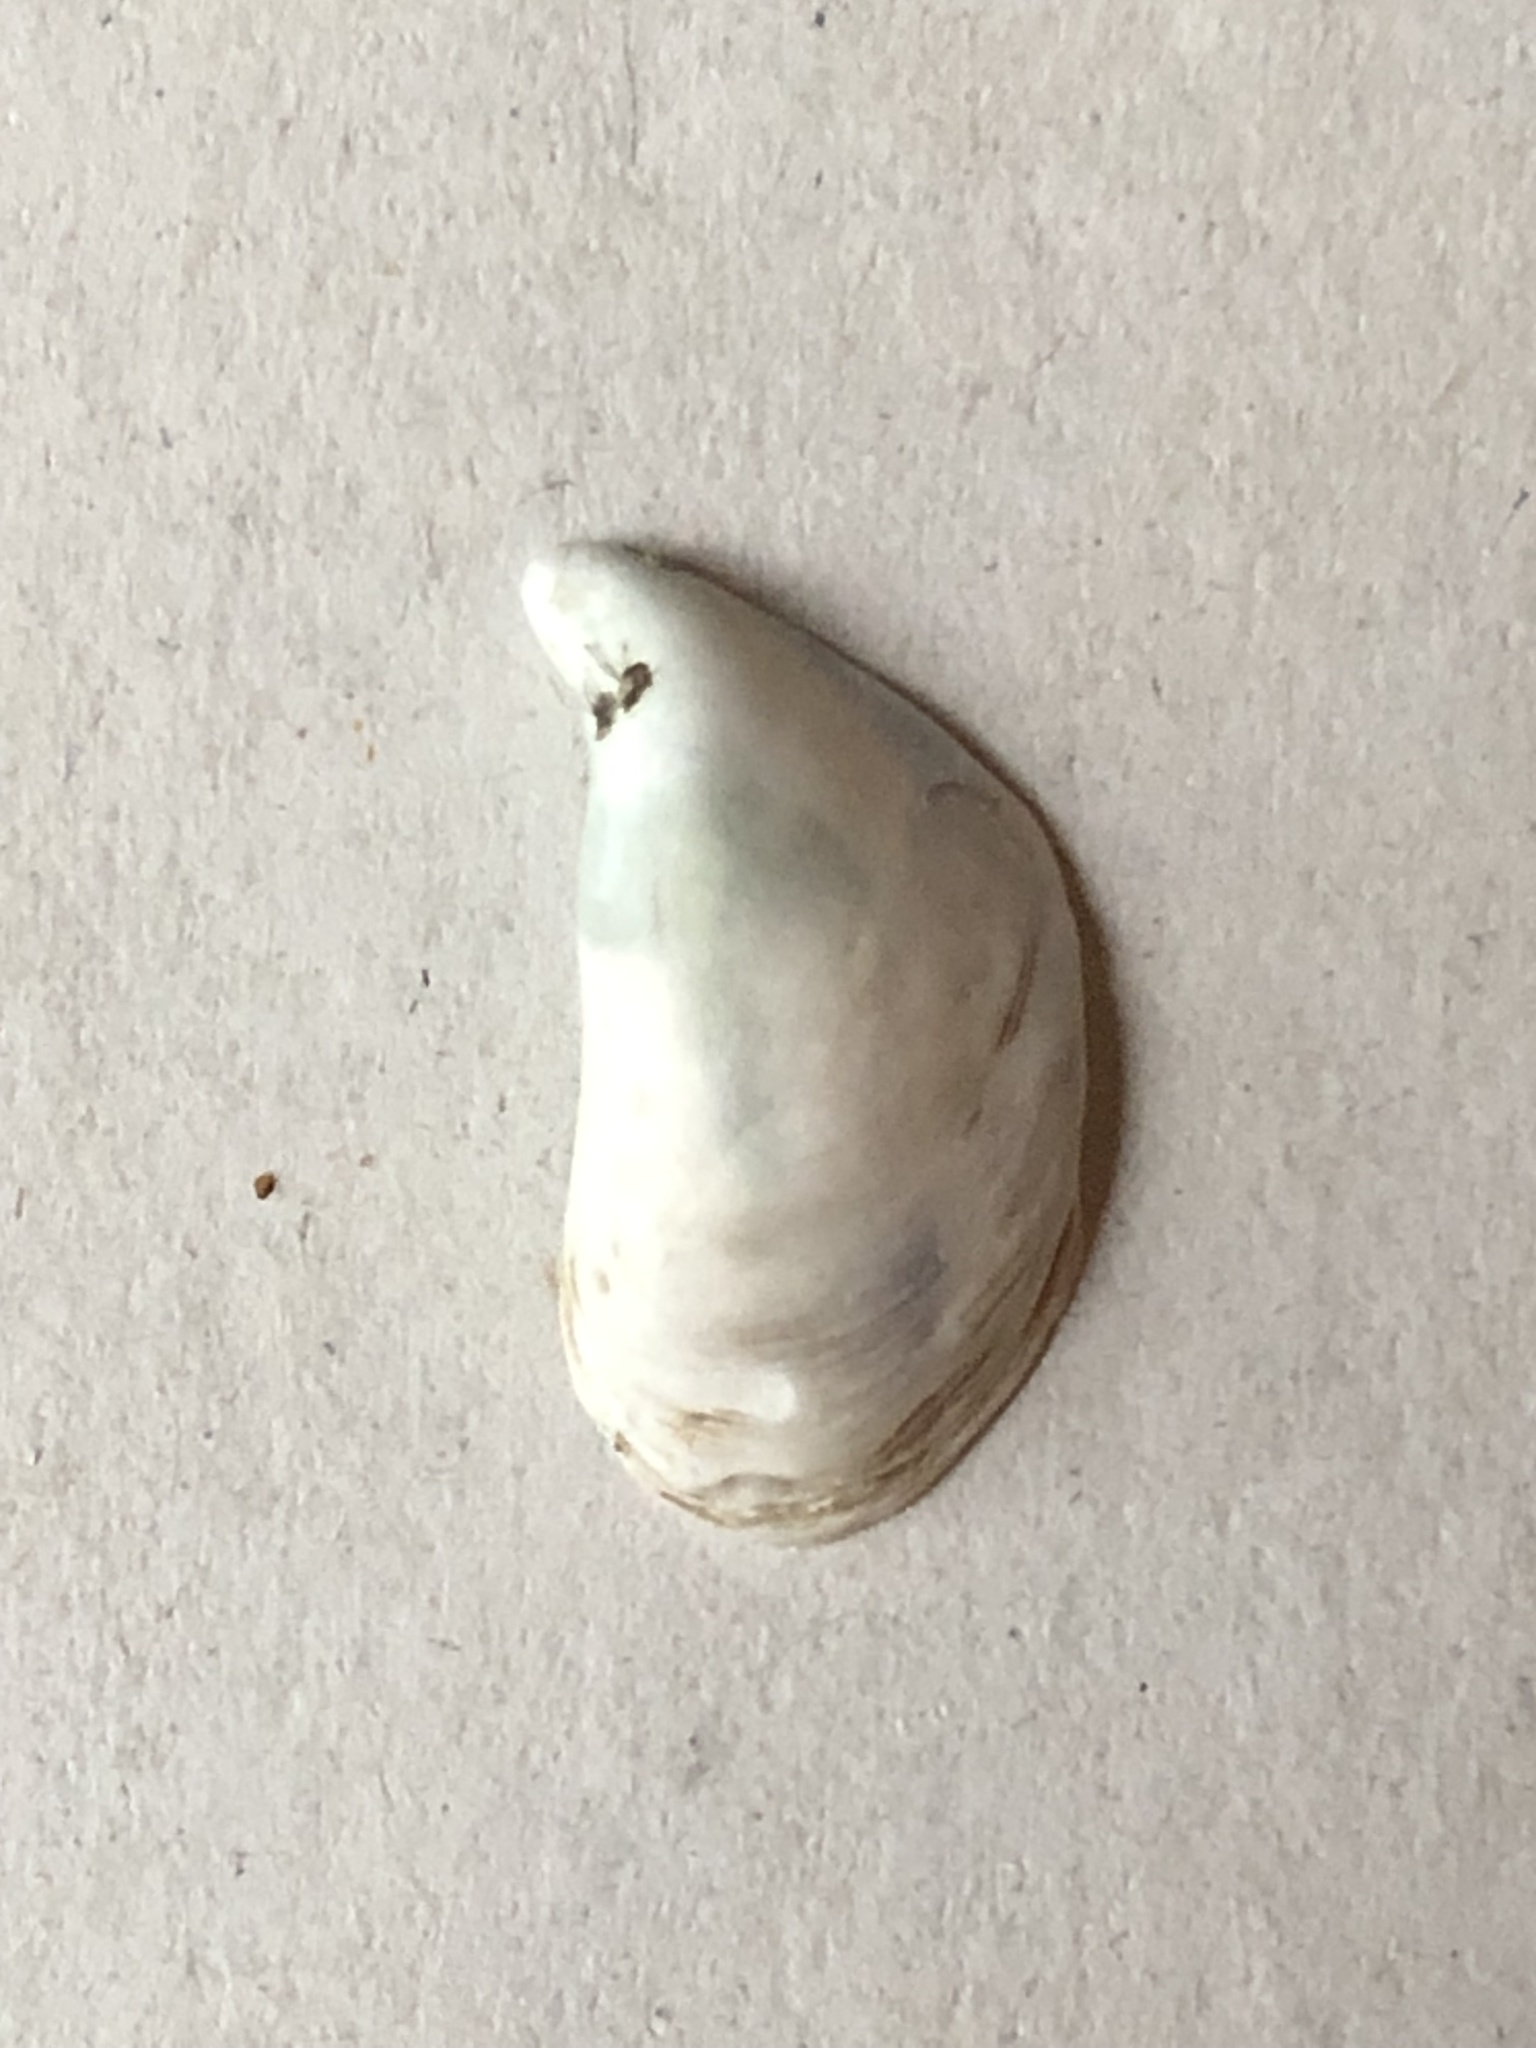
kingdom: Animalia
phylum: Mollusca
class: Bivalvia
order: Myida
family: Dreissenidae
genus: Dreissena
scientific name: Dreissena bugensis
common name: Quagga mussel
